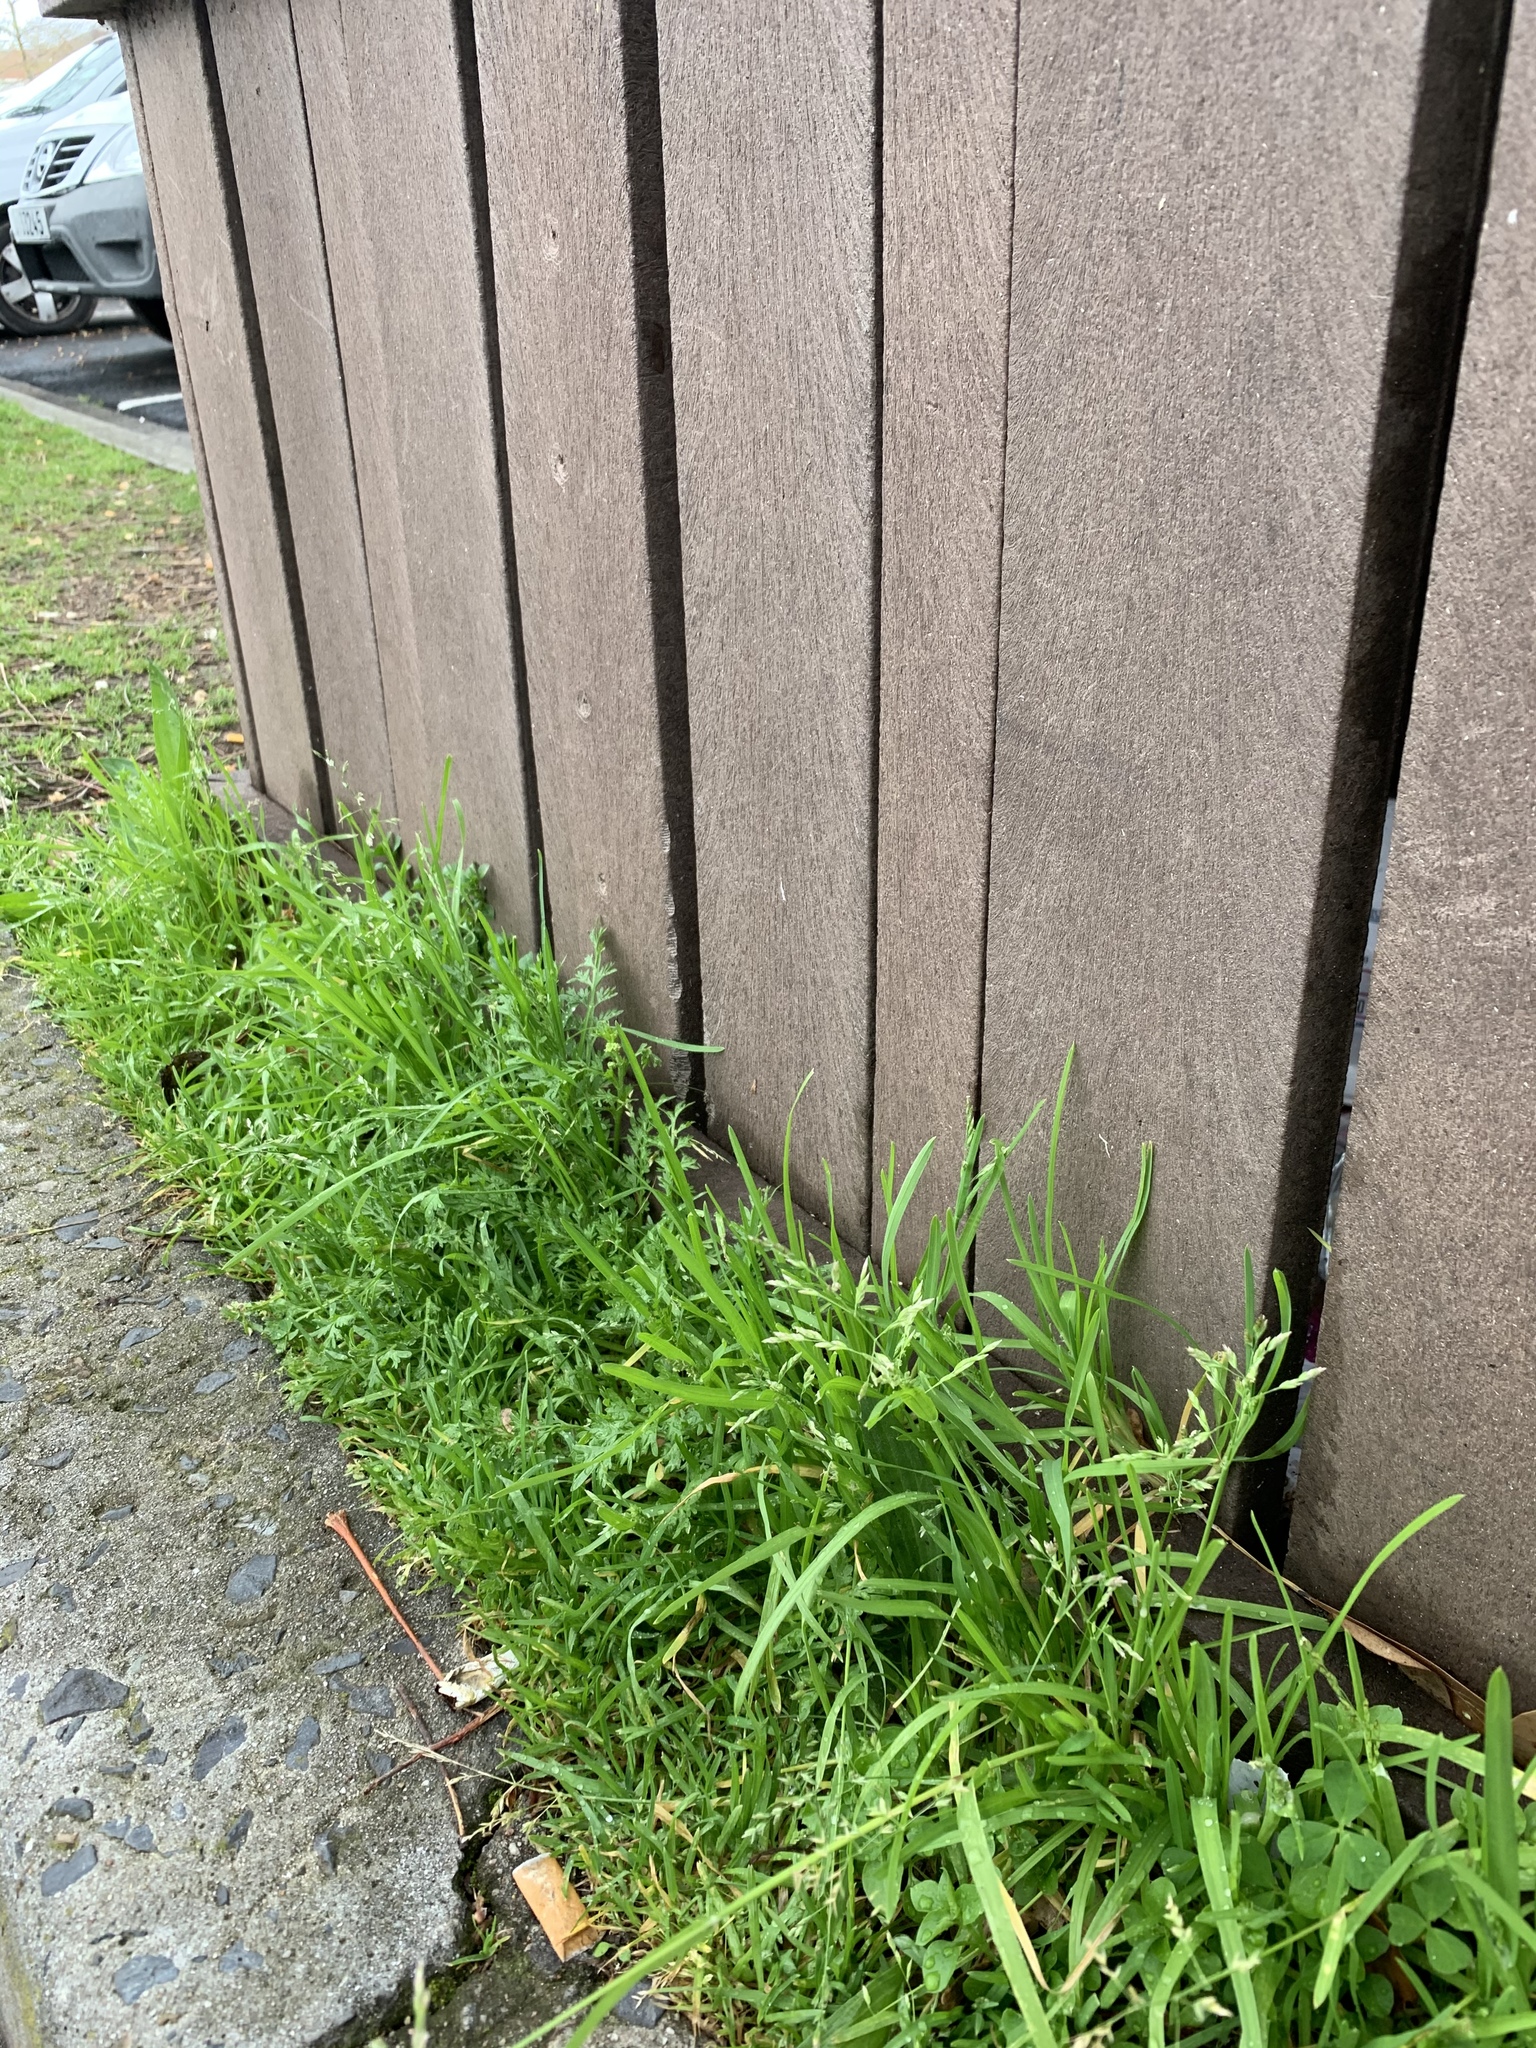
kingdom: Plantae
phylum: Tracheophyta
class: Liliopsida
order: Poales
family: Poaceae
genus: Poa
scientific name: Poa annua
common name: Annual bluegrass
